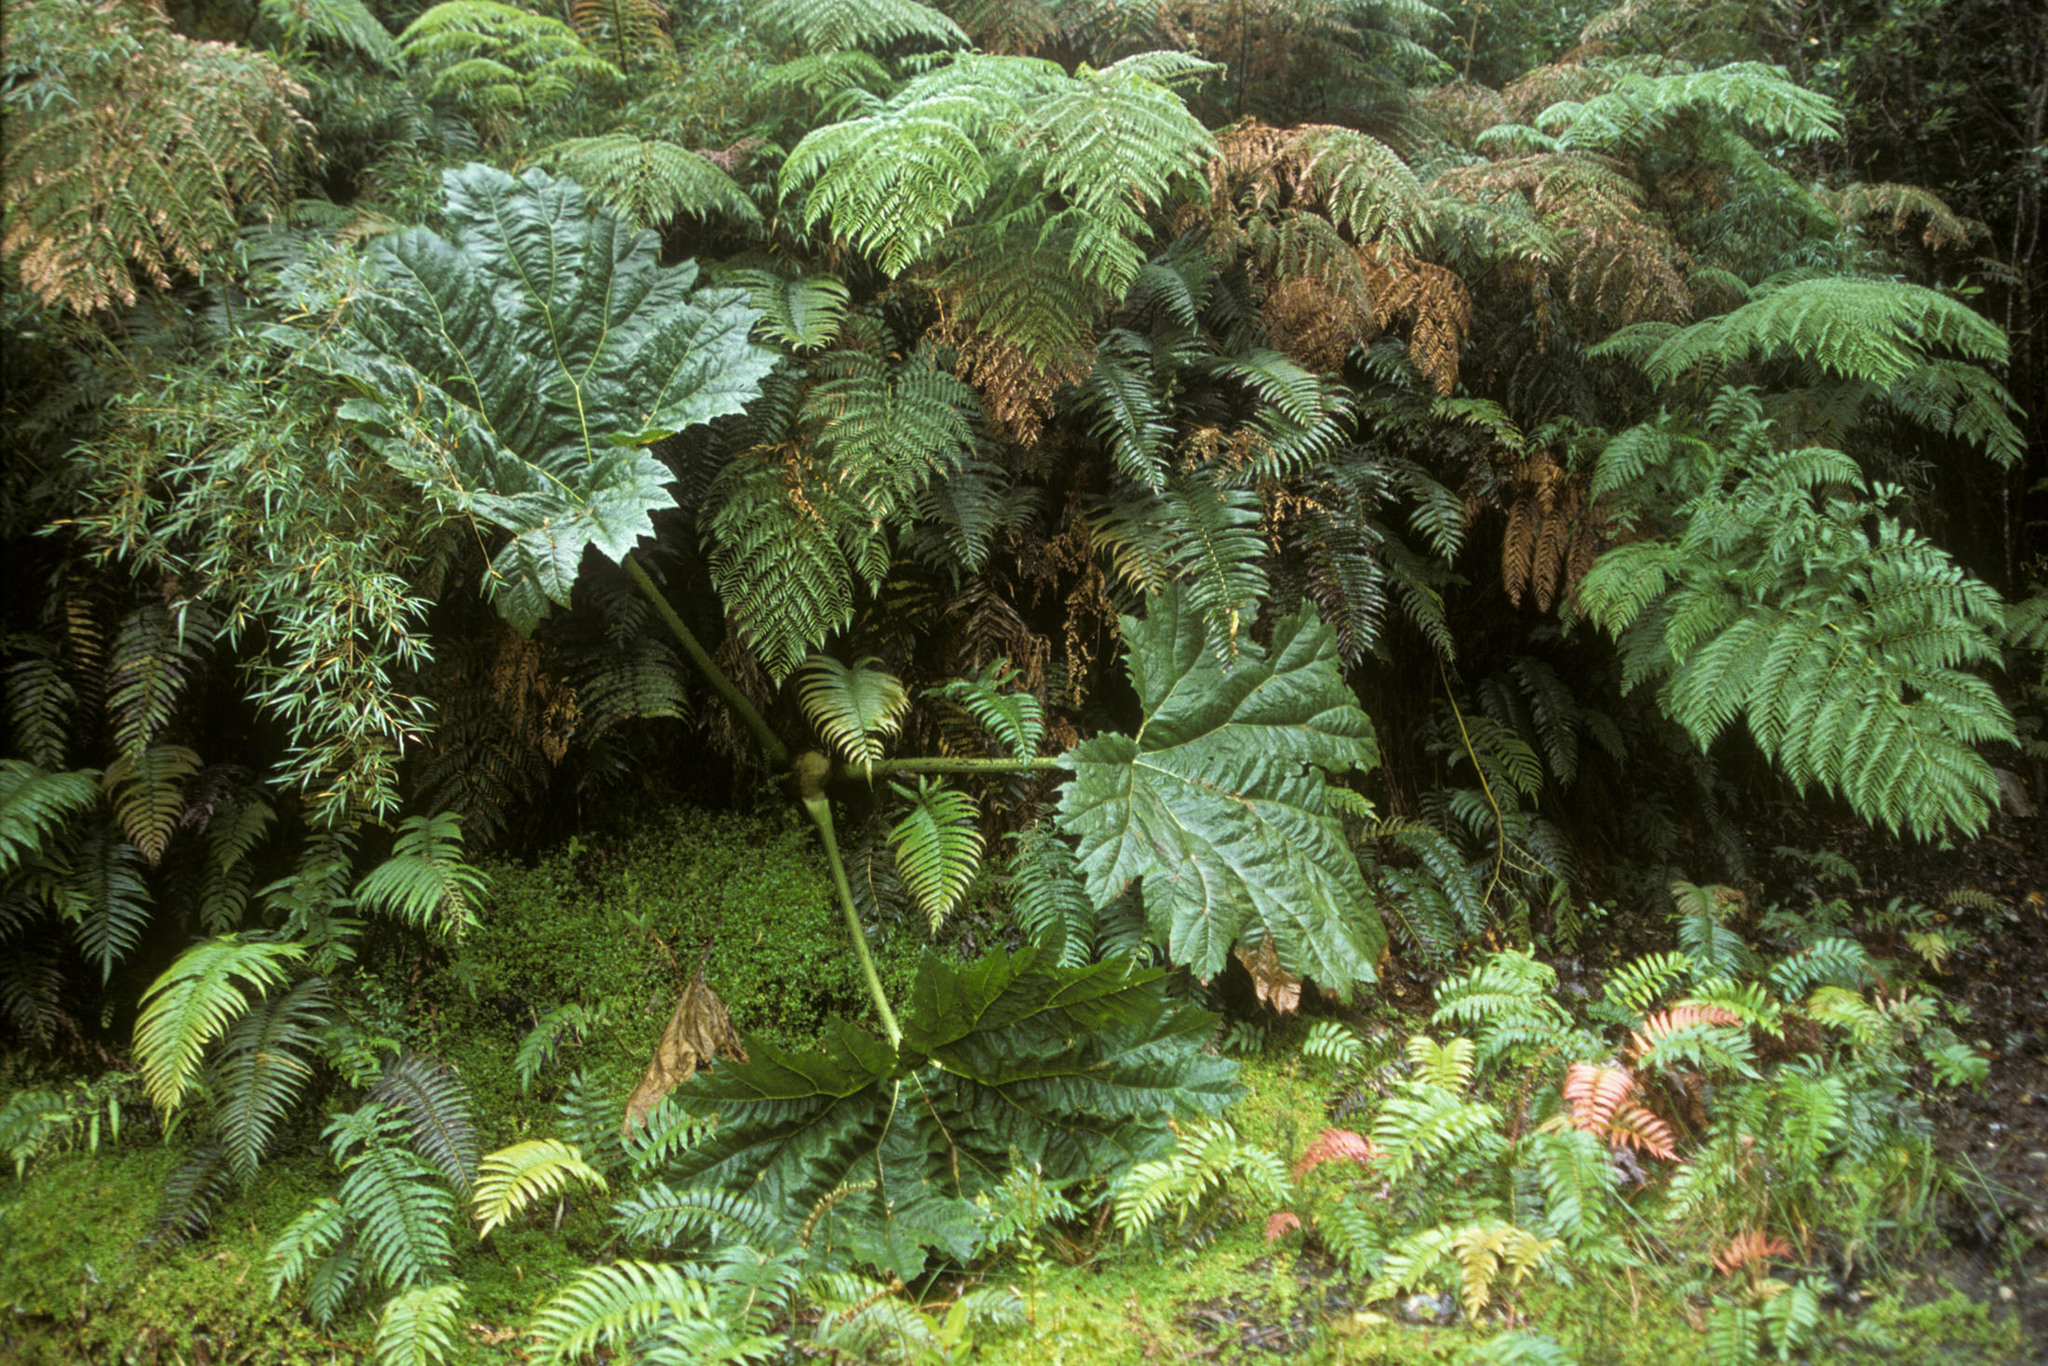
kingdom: Plantae
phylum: Tracheophyta
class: Magnoliopsida
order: Gunnerales
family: Gunneraceae
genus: Gunnera
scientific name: Gunnera tinctoria
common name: Giant-rhubarb
